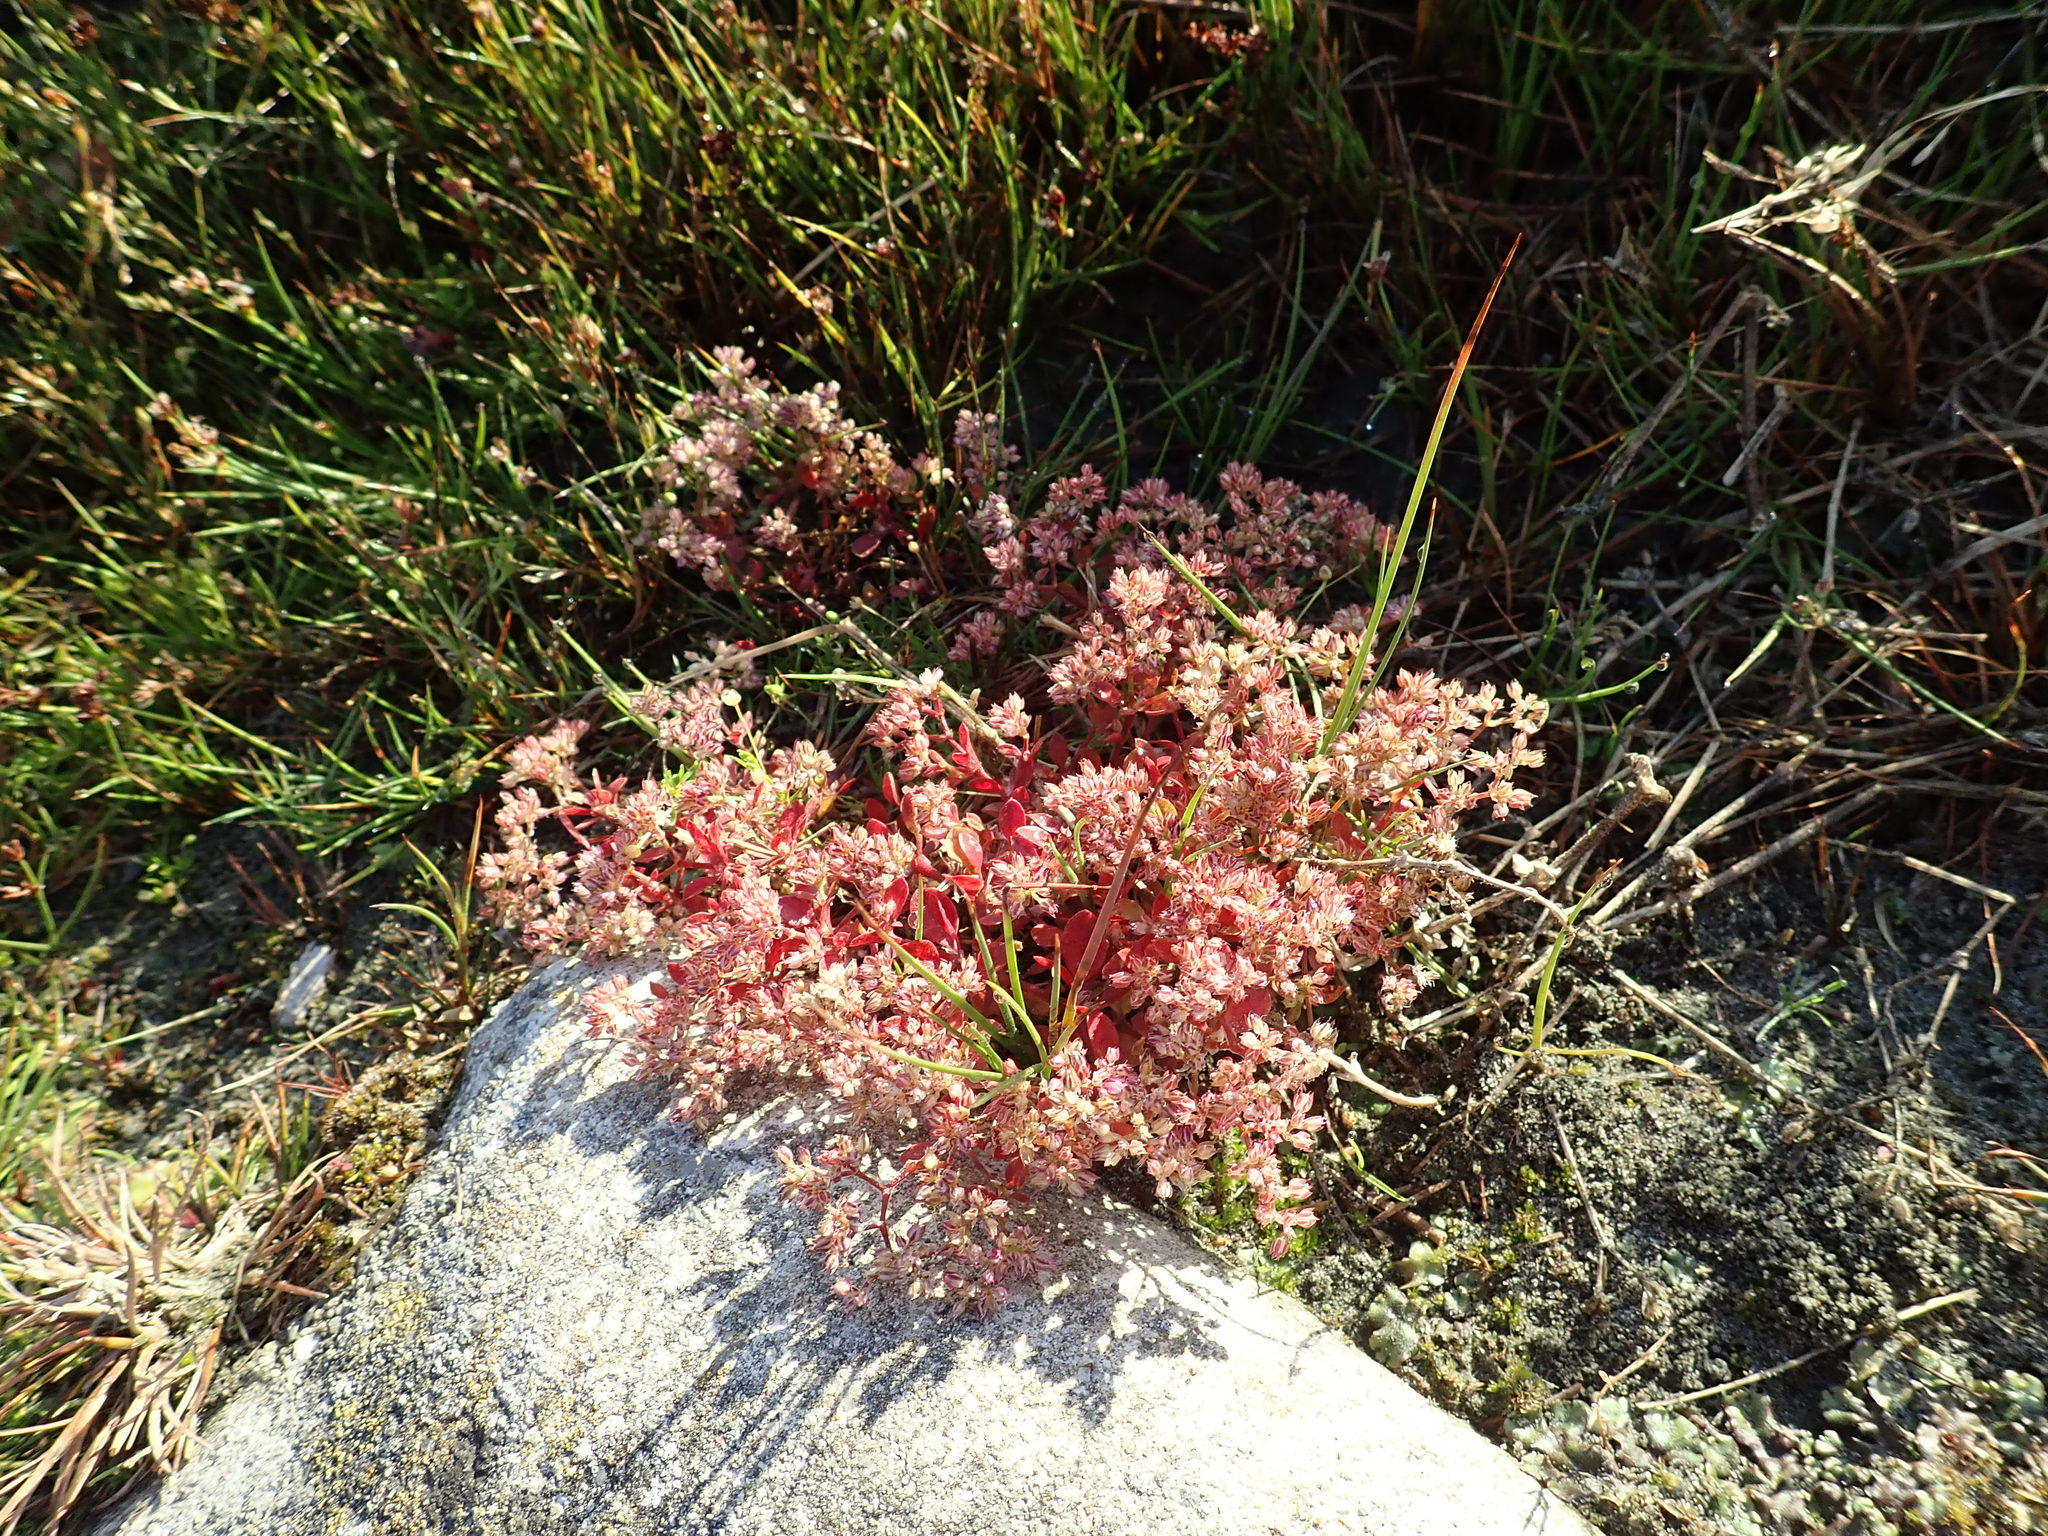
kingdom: Plantae
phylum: Tracheophyta
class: Magnoliopsida
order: Caryophyllales
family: Caryophyllaceae
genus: Polycarpon
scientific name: Polycarpon tetraphyllum
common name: Four-leaved all-seed
